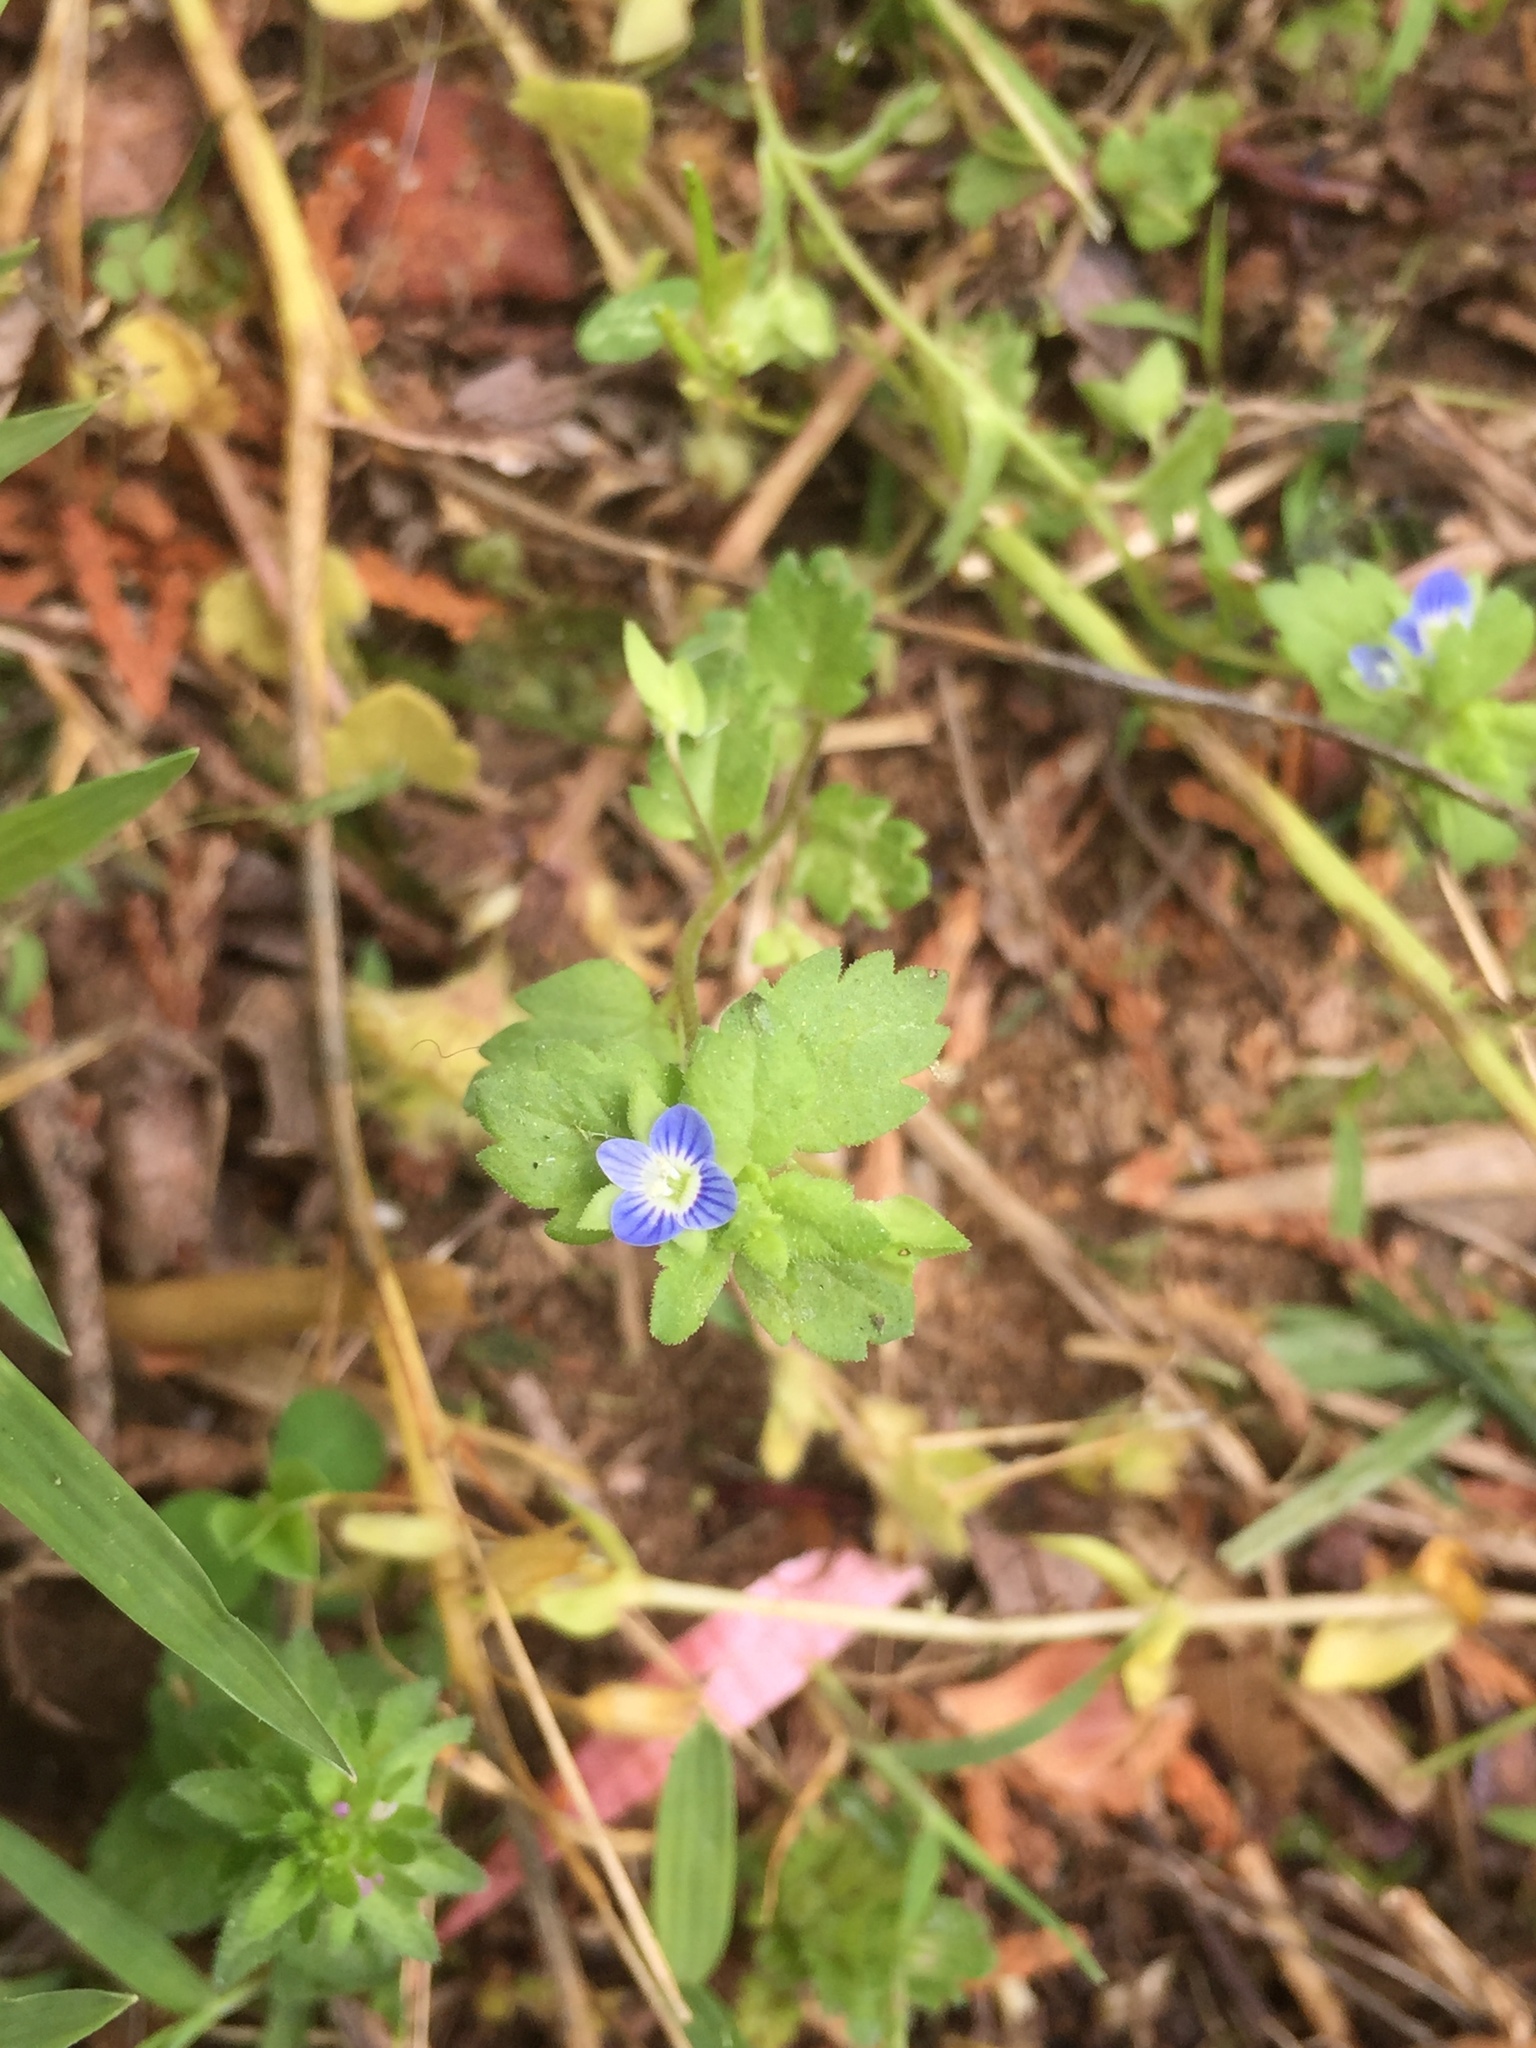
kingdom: Plantae
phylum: Tracheophyta
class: Magnoliopsida
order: Lamiales
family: Plantaginaceae
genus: Veronica
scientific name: Veronica persica
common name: Common field-speedwell
